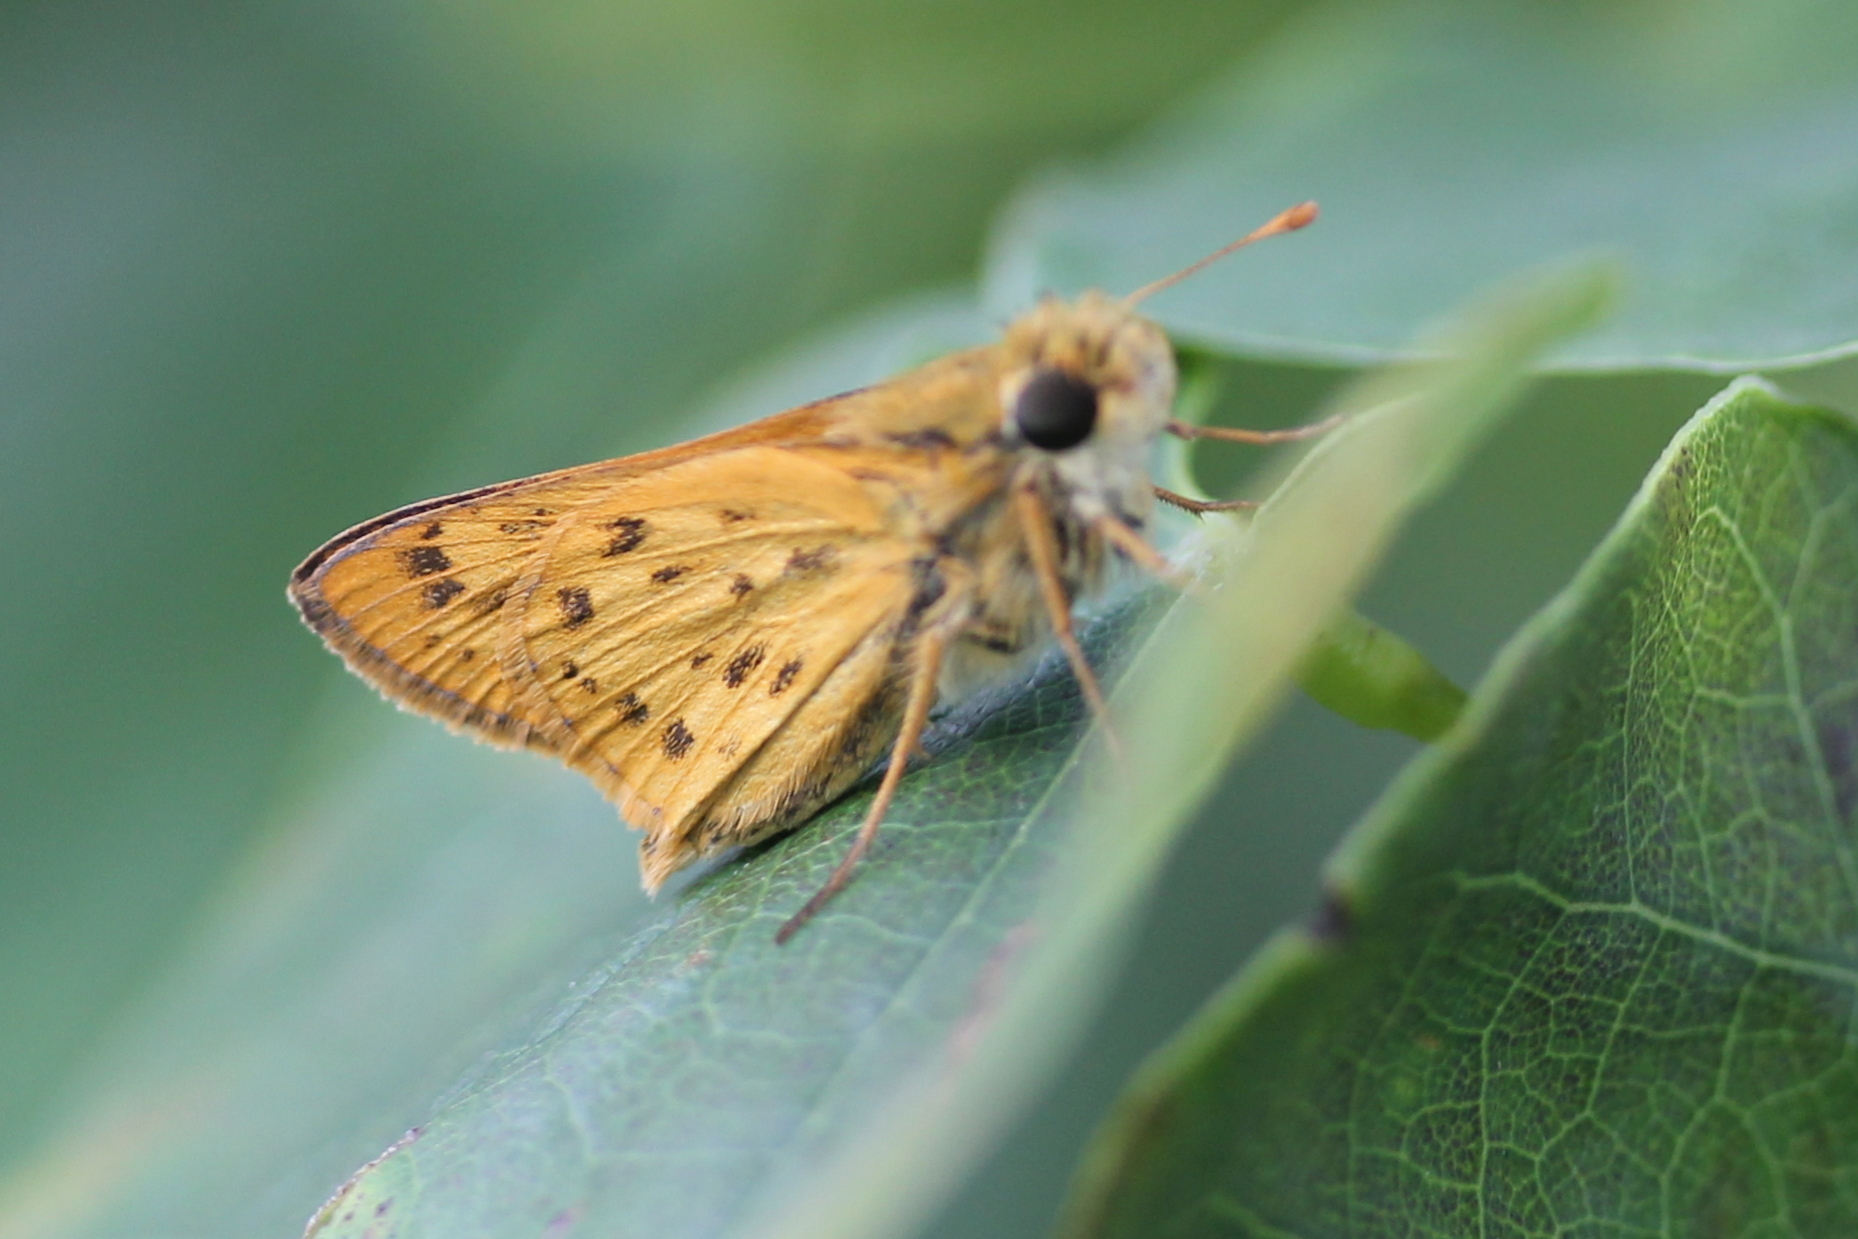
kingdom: Animalia
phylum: Arthropoda
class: Insecta
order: Lepidoptera
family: Hesperiidae
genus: Hylephila
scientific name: Hylephila phyleus
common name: Fiery skipper
